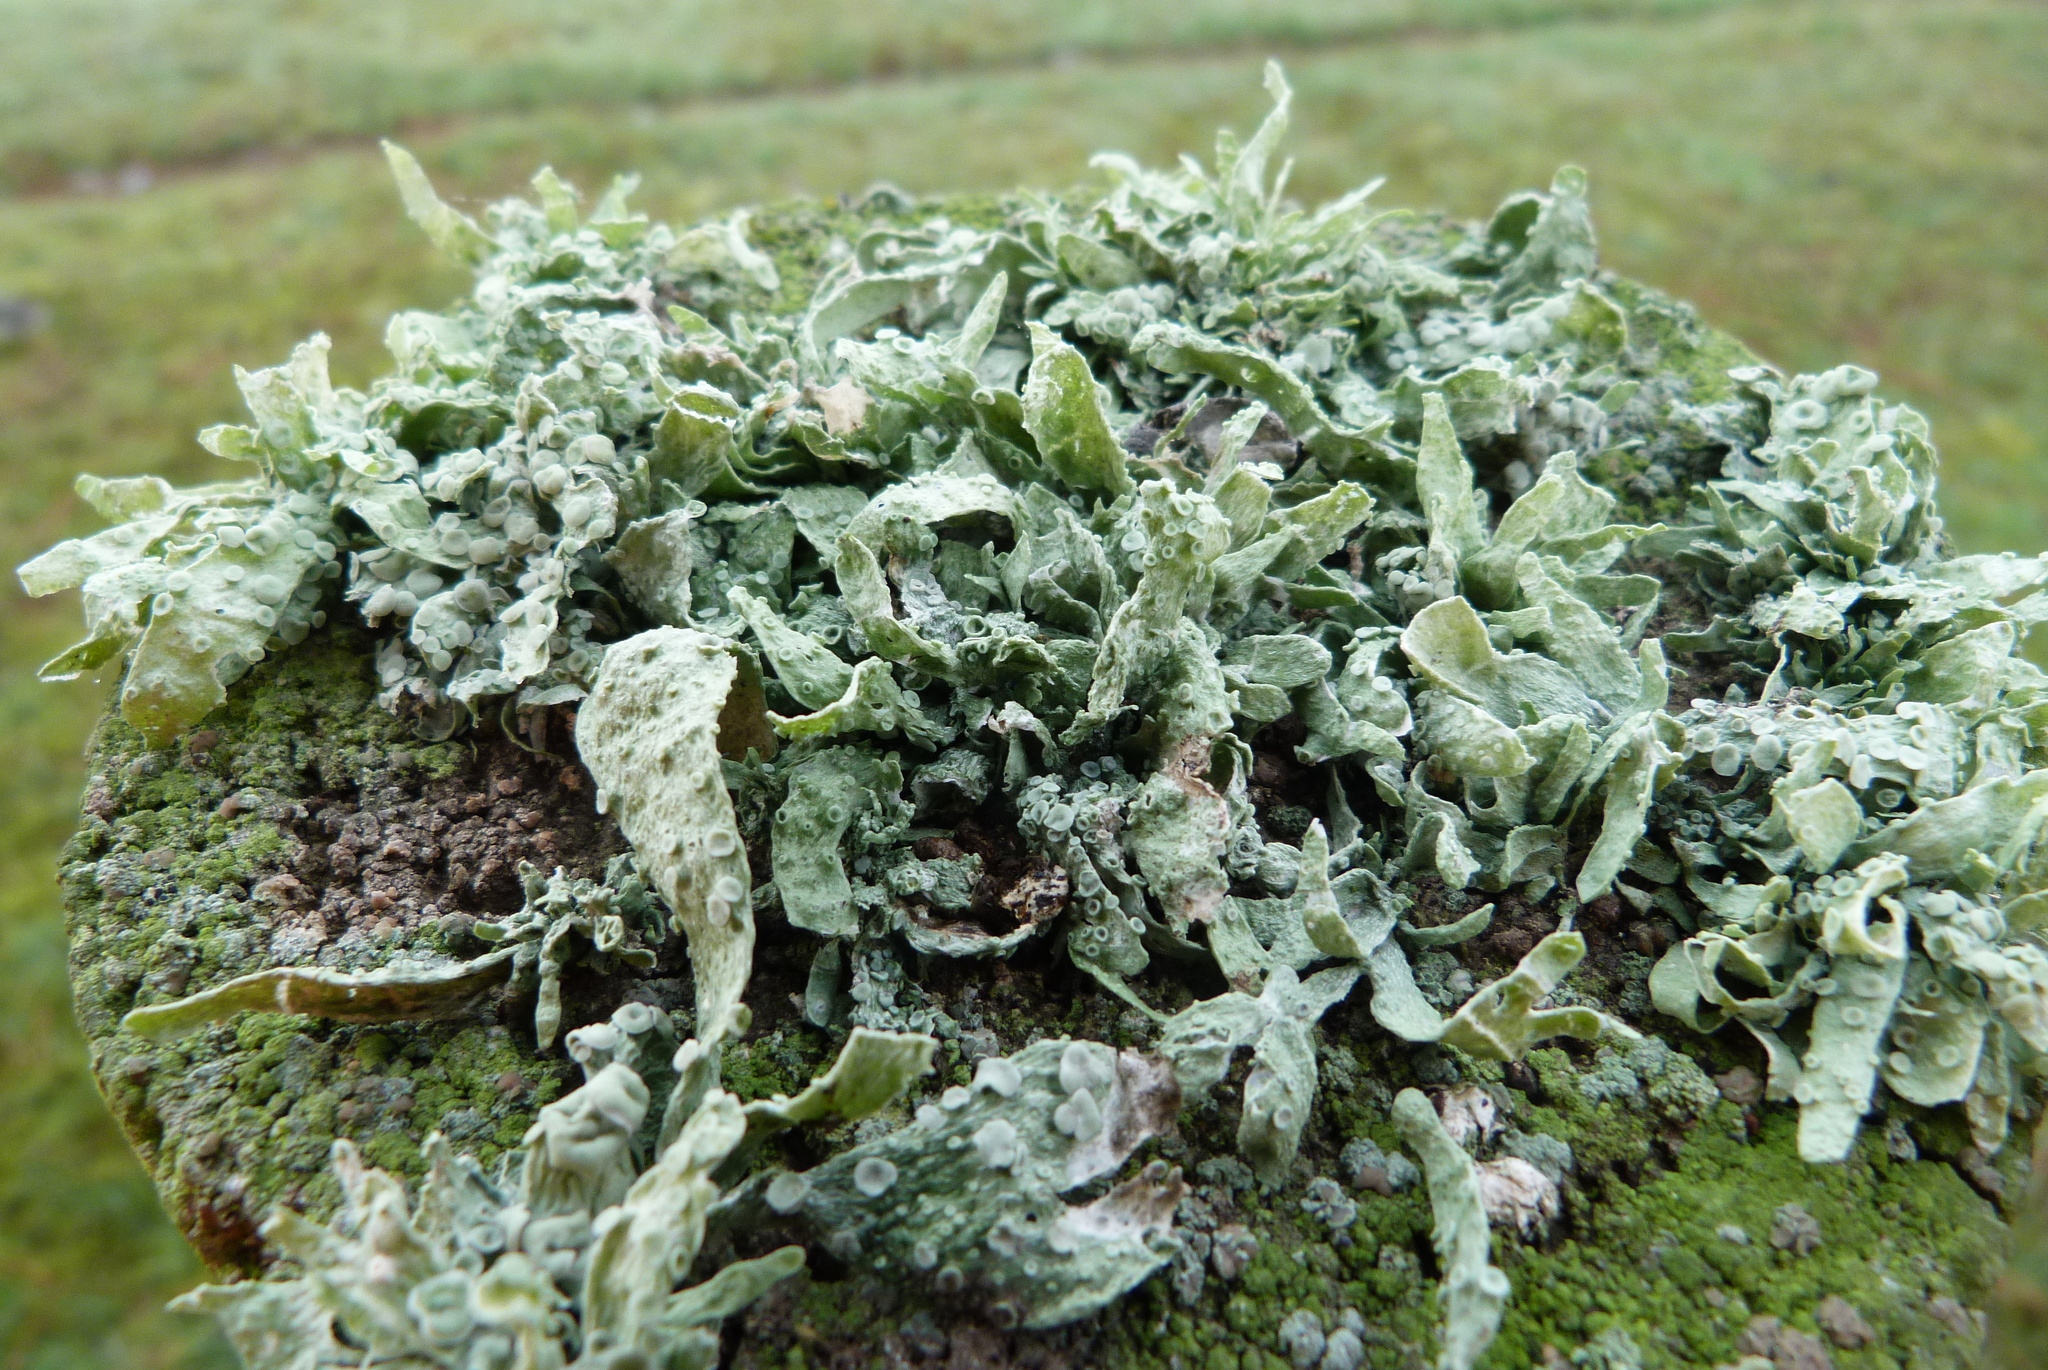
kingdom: Fungi
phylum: Ascomycota
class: Lecanoromycetes
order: Lecanorales
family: Ramalinaceae
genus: Ramalina
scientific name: Ramalina celastri
